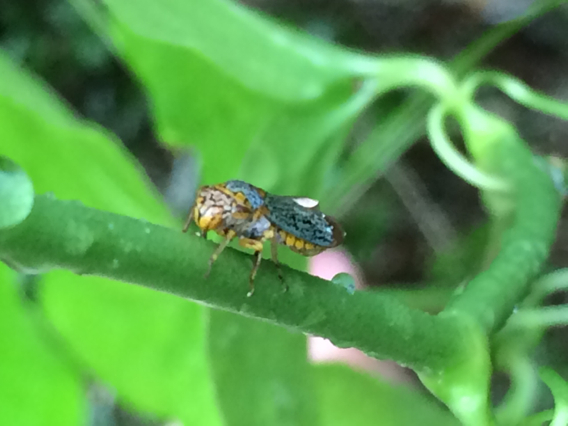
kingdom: Animalia
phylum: Arthropoda
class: Insecta
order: Hemiptera
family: Cicadellidae
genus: Oncometopia
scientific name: Oncometopia orbona
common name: Broad-headed sharpshooter
